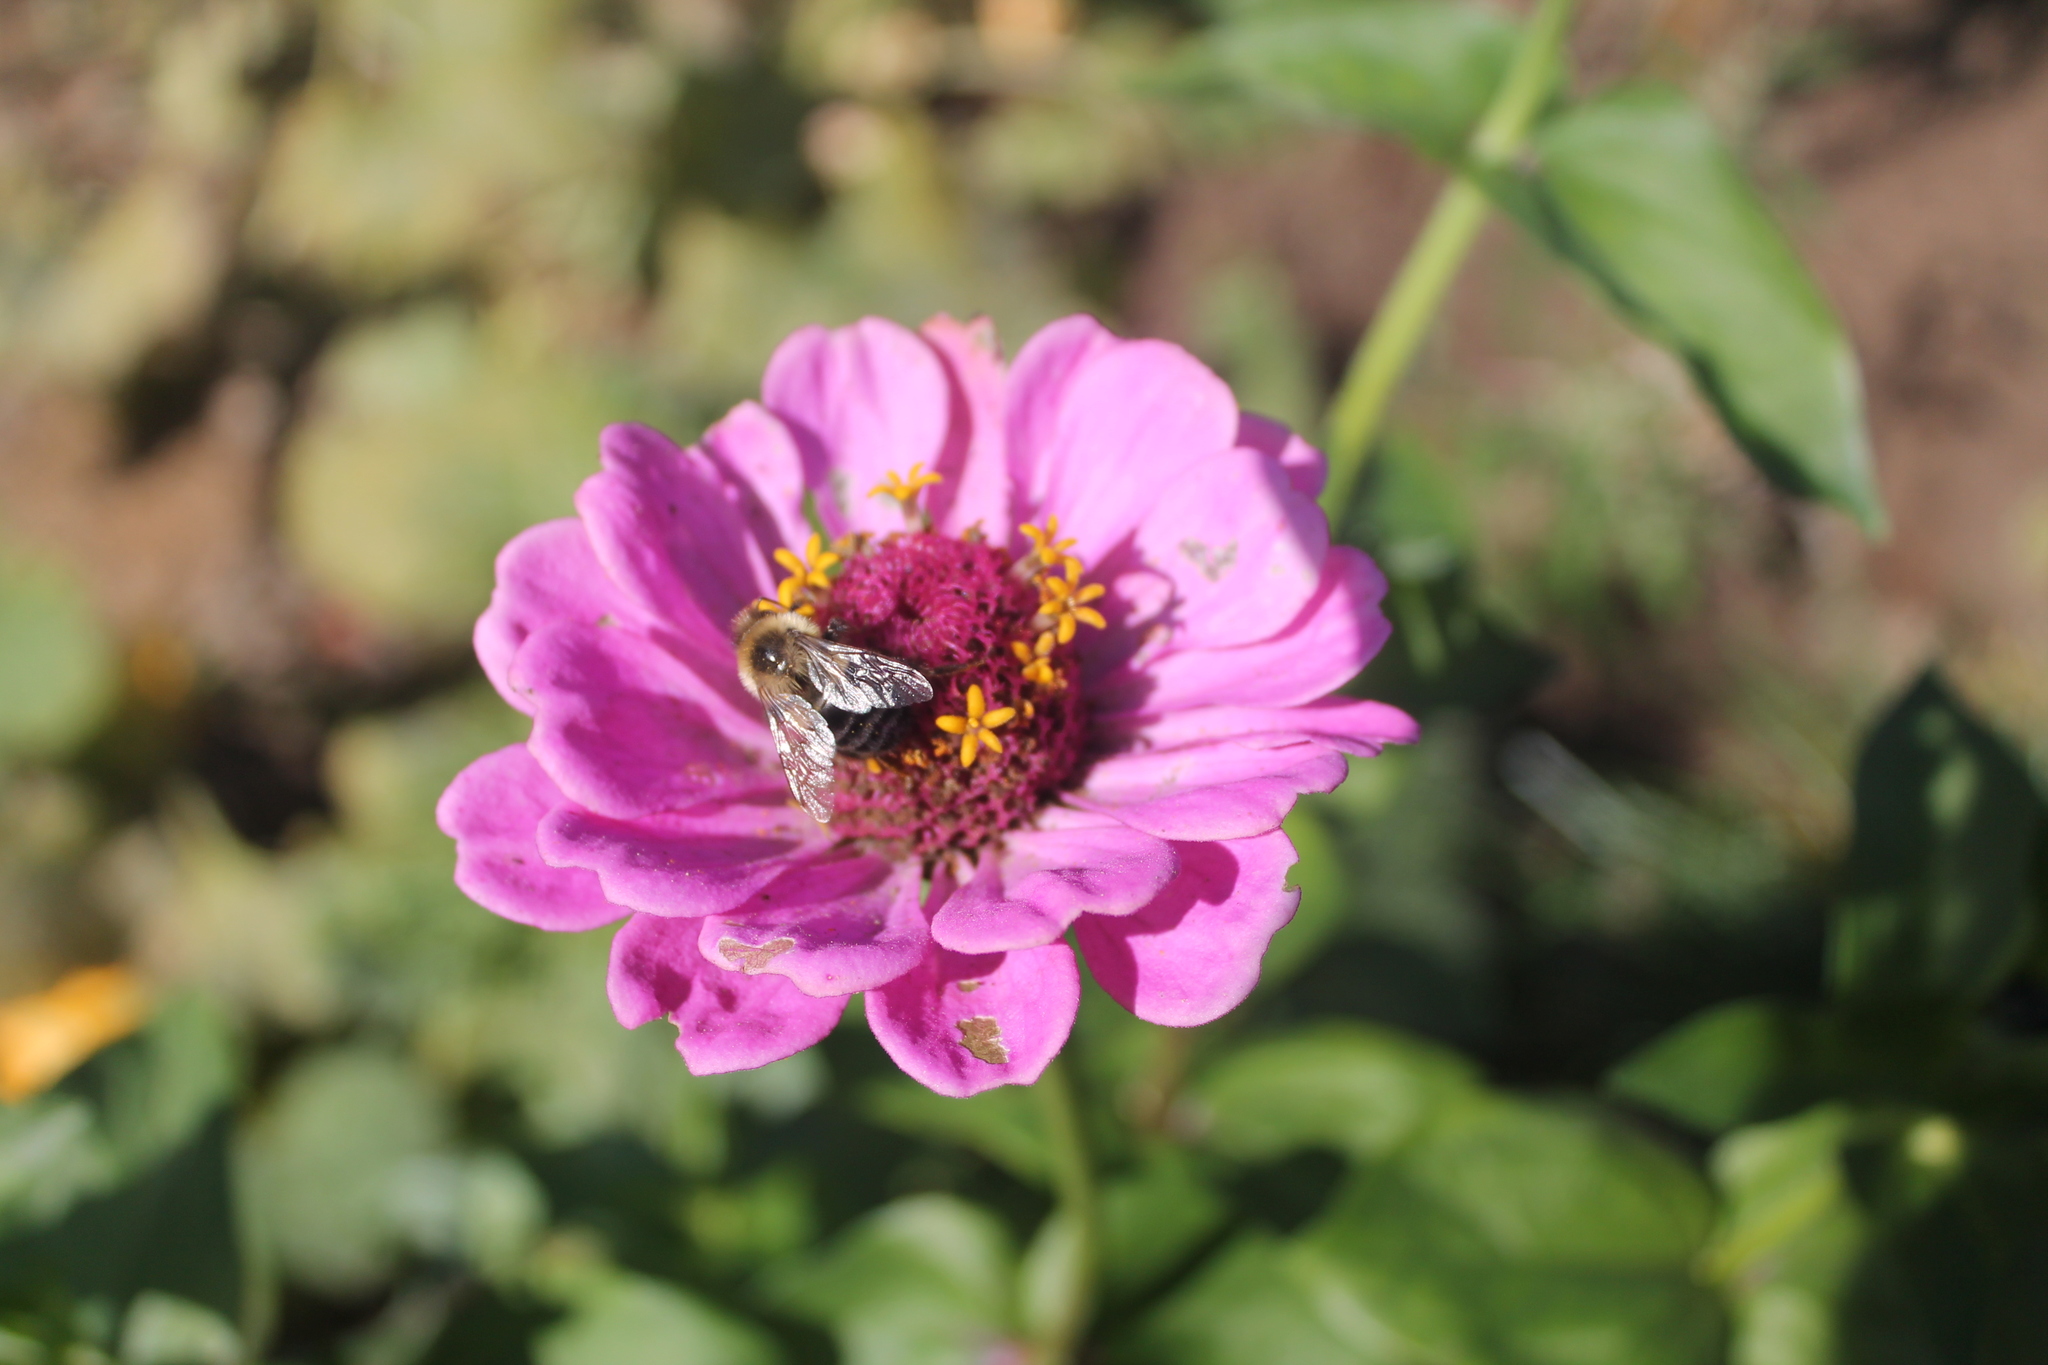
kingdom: Animalia
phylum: Arthropoda
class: Insecta
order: Hymenoptera
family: Apidae
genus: Bombus
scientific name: Bombus impatiens
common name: Common eastern bumble bee
